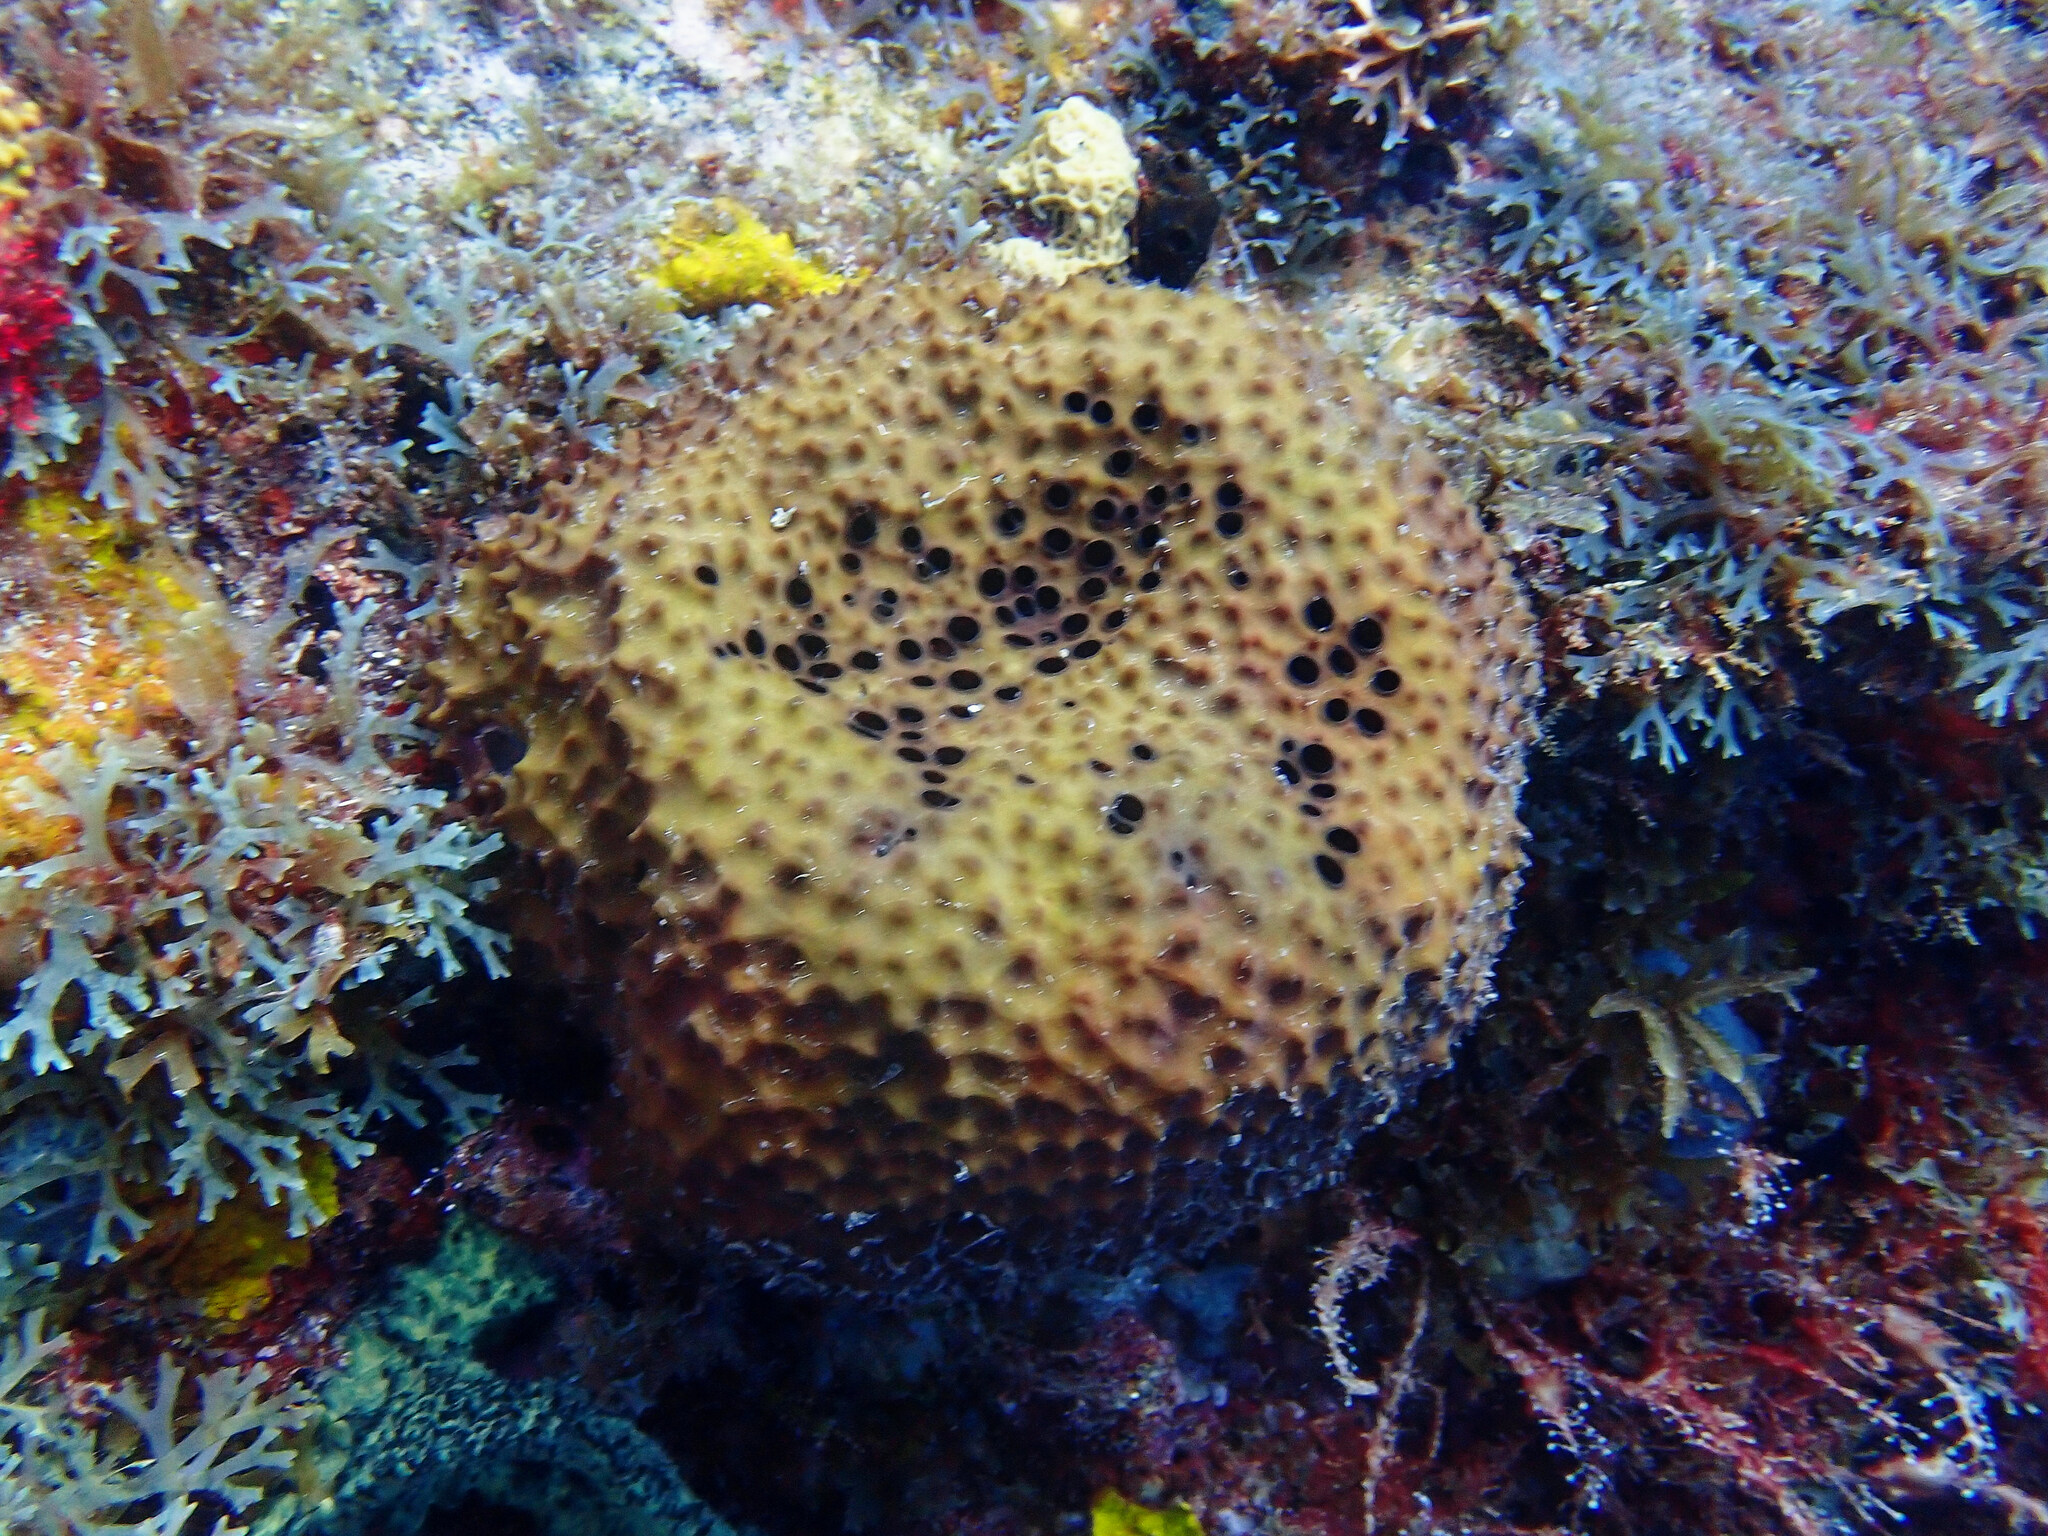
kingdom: Animalia
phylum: Porifera
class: Demospongiae
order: Dictyoceratida
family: Irciniidae
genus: Ircinia
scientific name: Ircinia felix
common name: Stinker sponge
